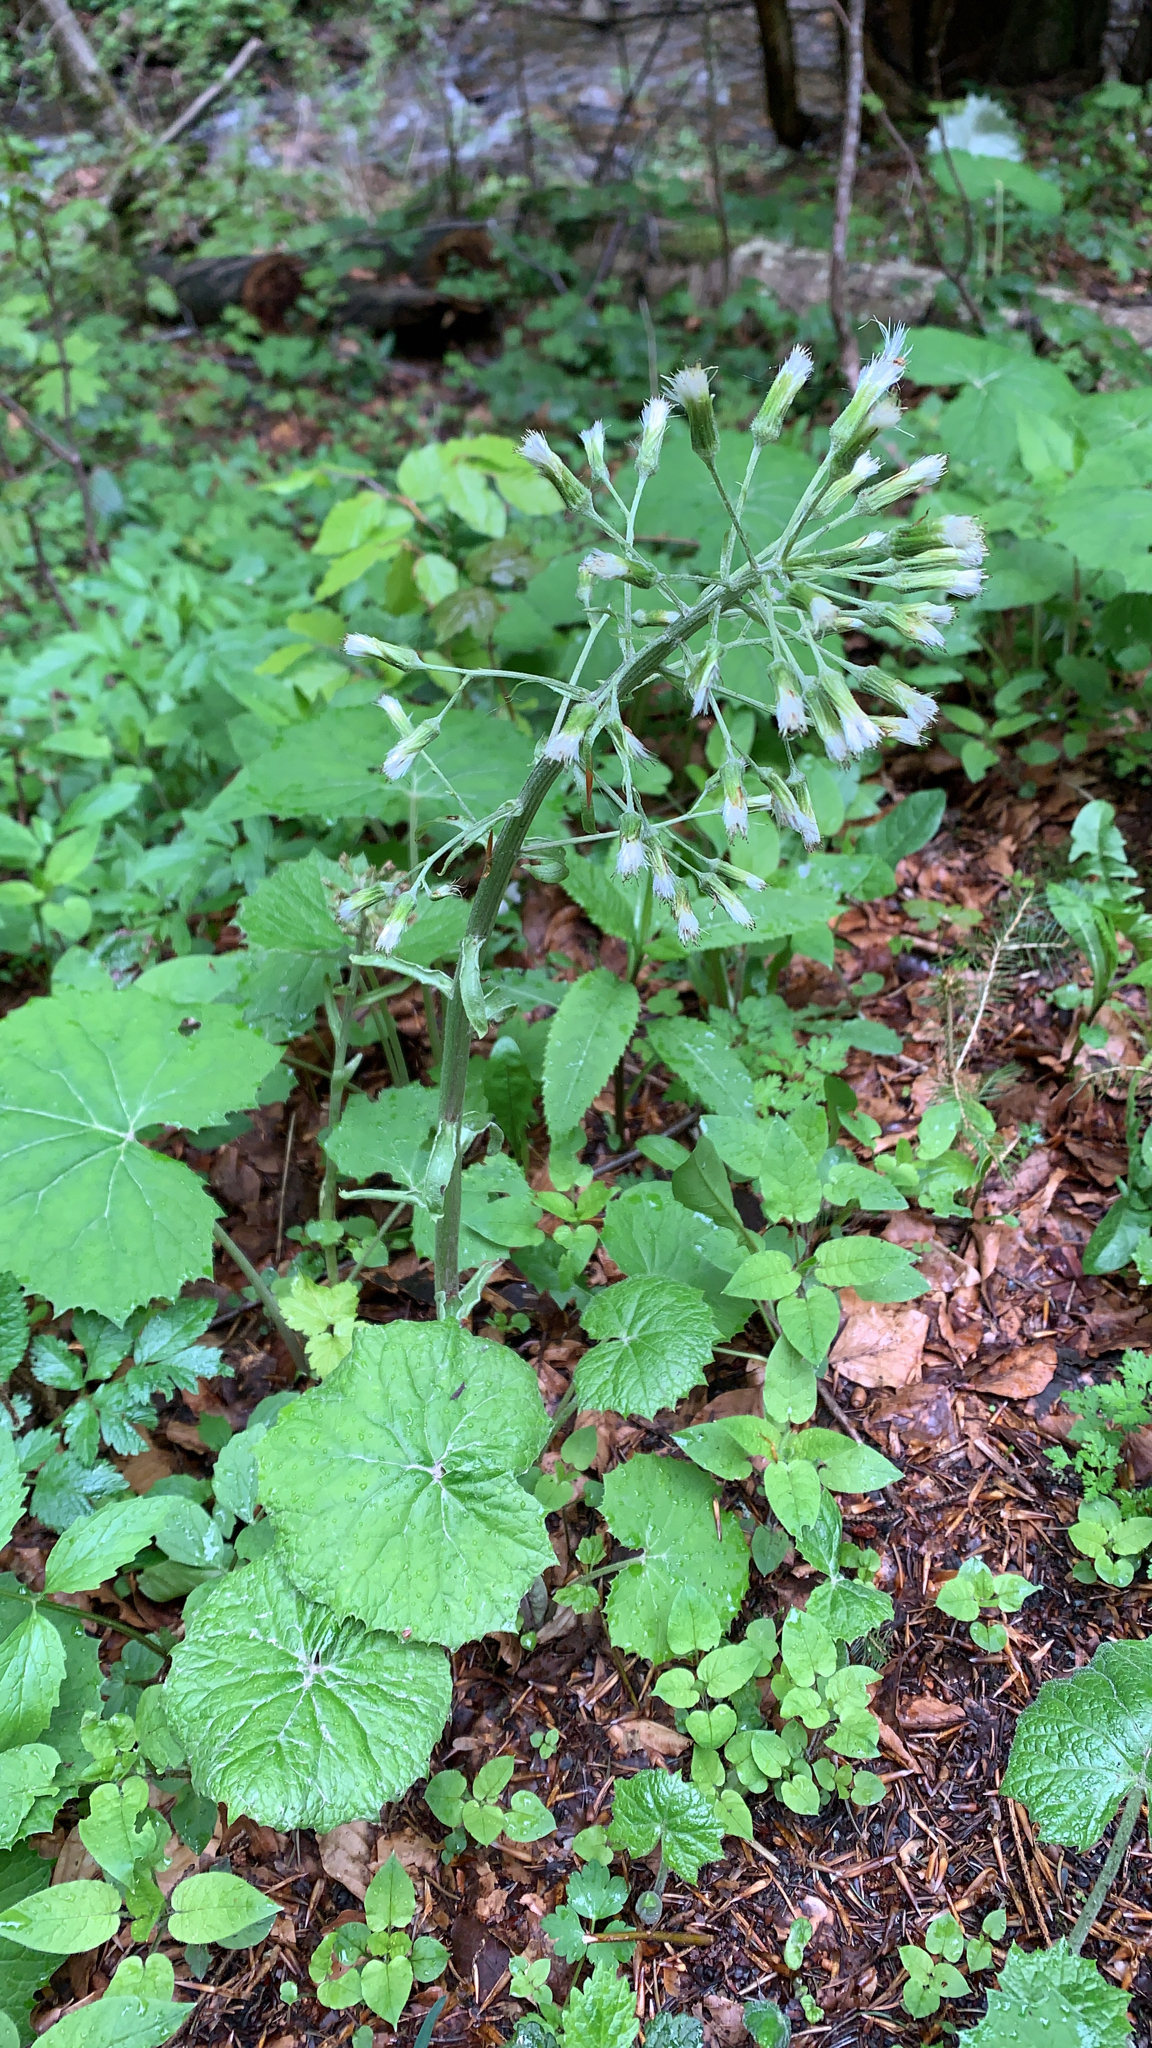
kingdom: Plantae
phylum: Tracheophyta
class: Magnoliopsida
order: Asterales
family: Asteraceae
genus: Petasites
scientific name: Petasites albus
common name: White butterbur
